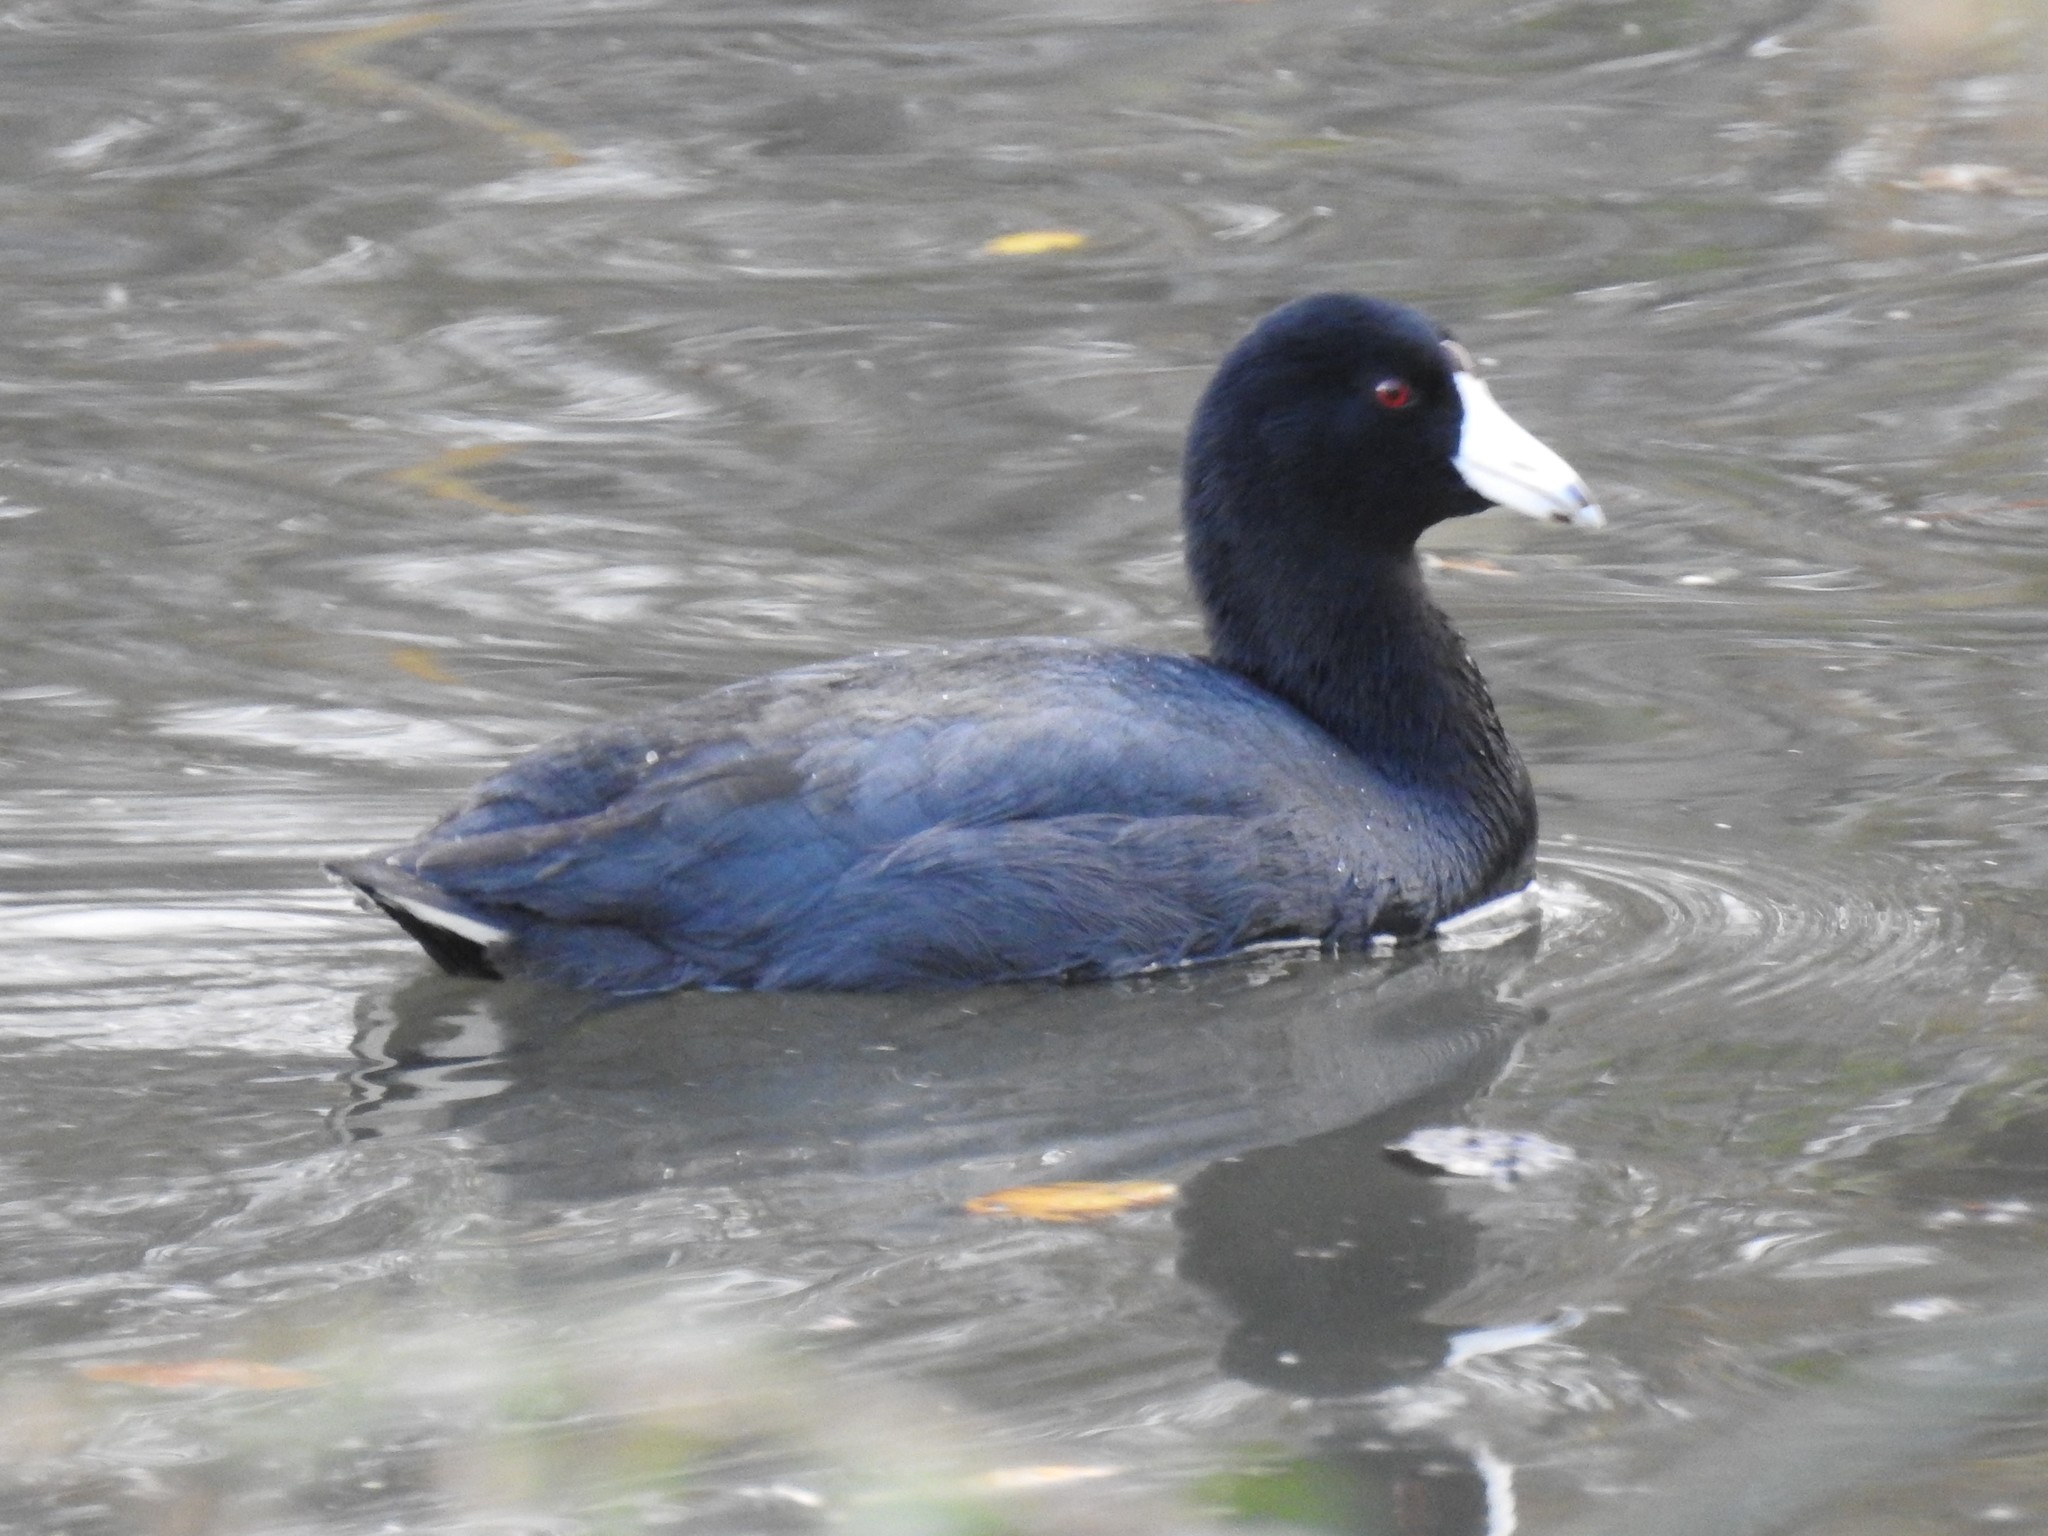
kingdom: Animalia
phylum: Chordata
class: Aves
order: Gruiformes
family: Rallidae
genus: Fulica
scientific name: Fulica americana
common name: American coot
